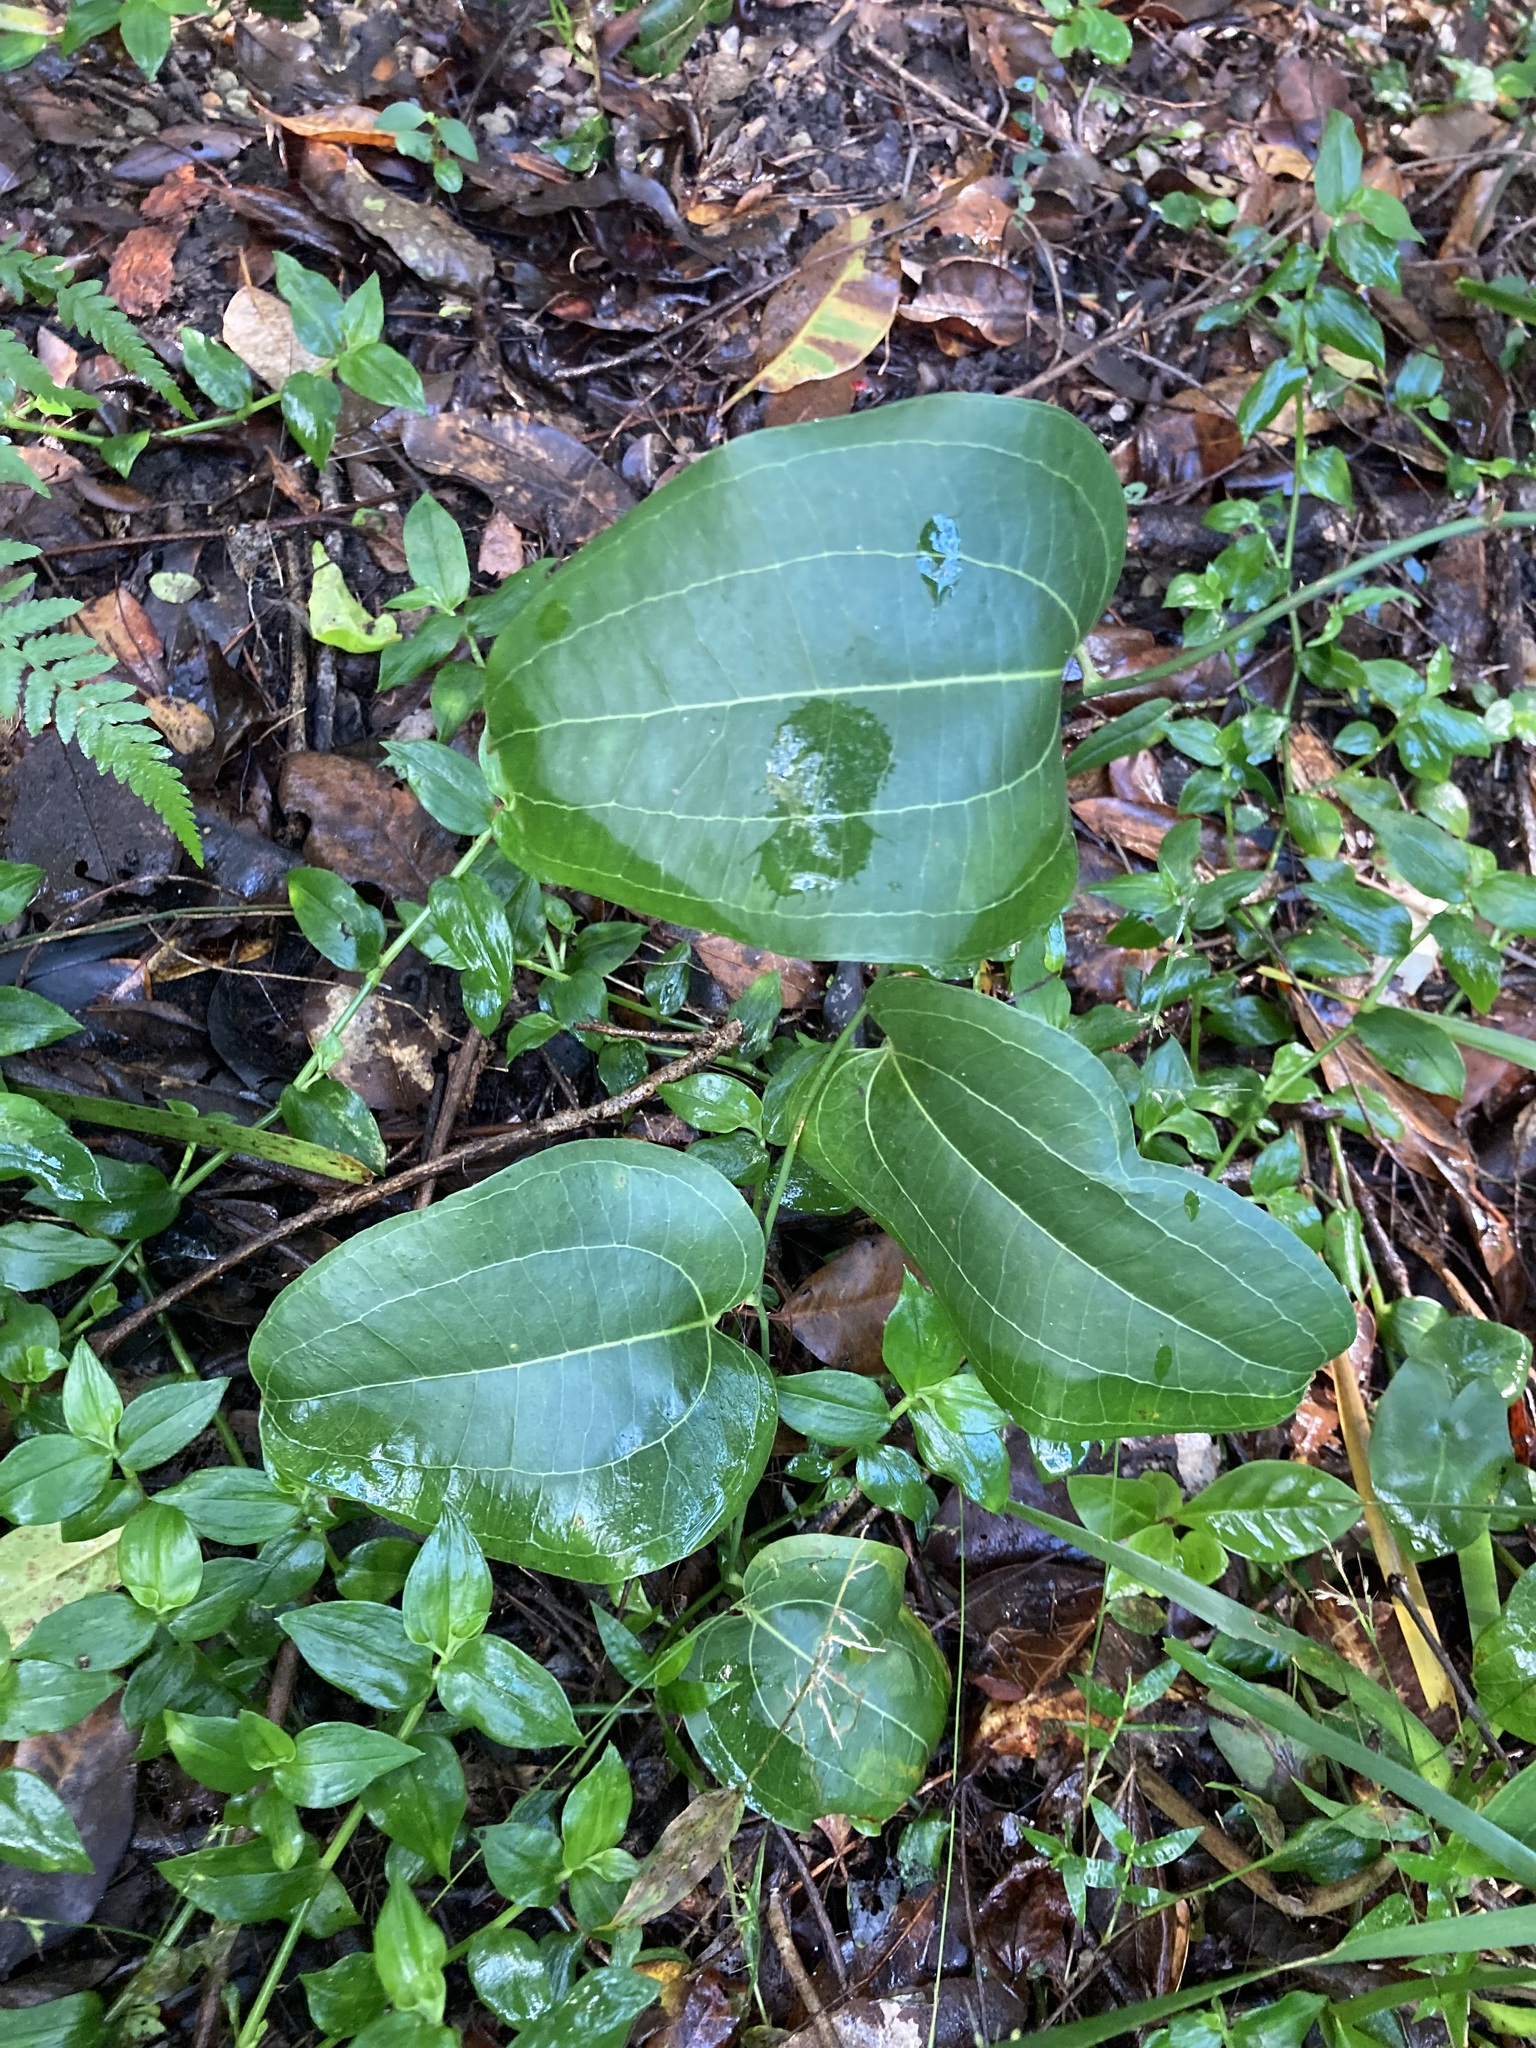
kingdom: Plantae
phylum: Tracheophyta
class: Liliopsida
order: Liliales
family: Smilacaceae
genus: Smilax
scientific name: Smilax australis
